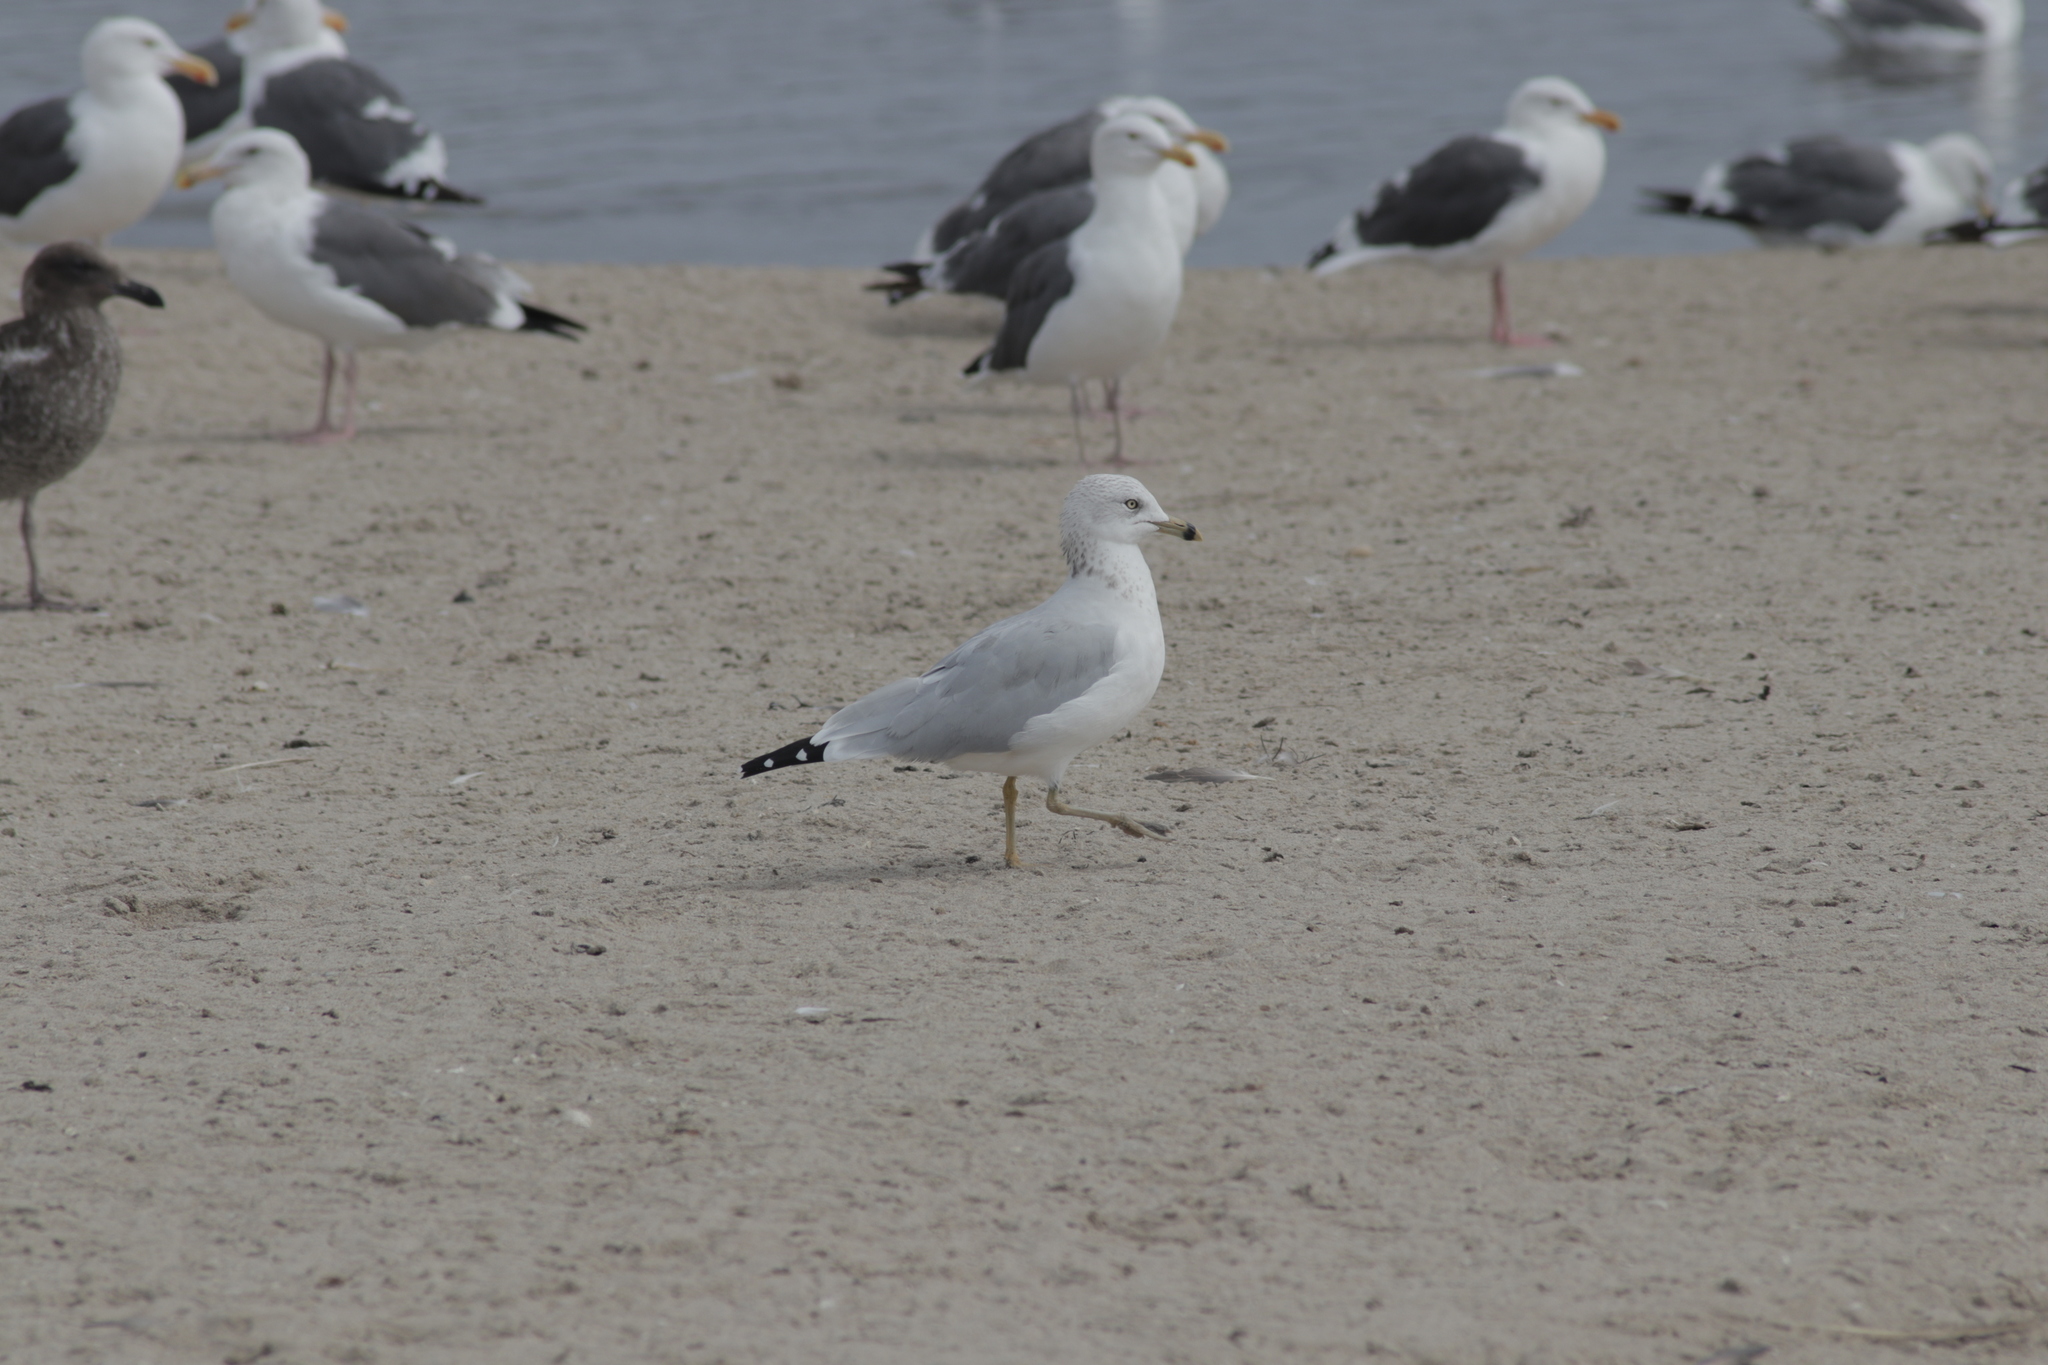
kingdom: Animalia
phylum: Chordata
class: Aves
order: Charadriiformes
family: Laridae
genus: Larus
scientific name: Larus delawarensis
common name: Ring-billed gull
